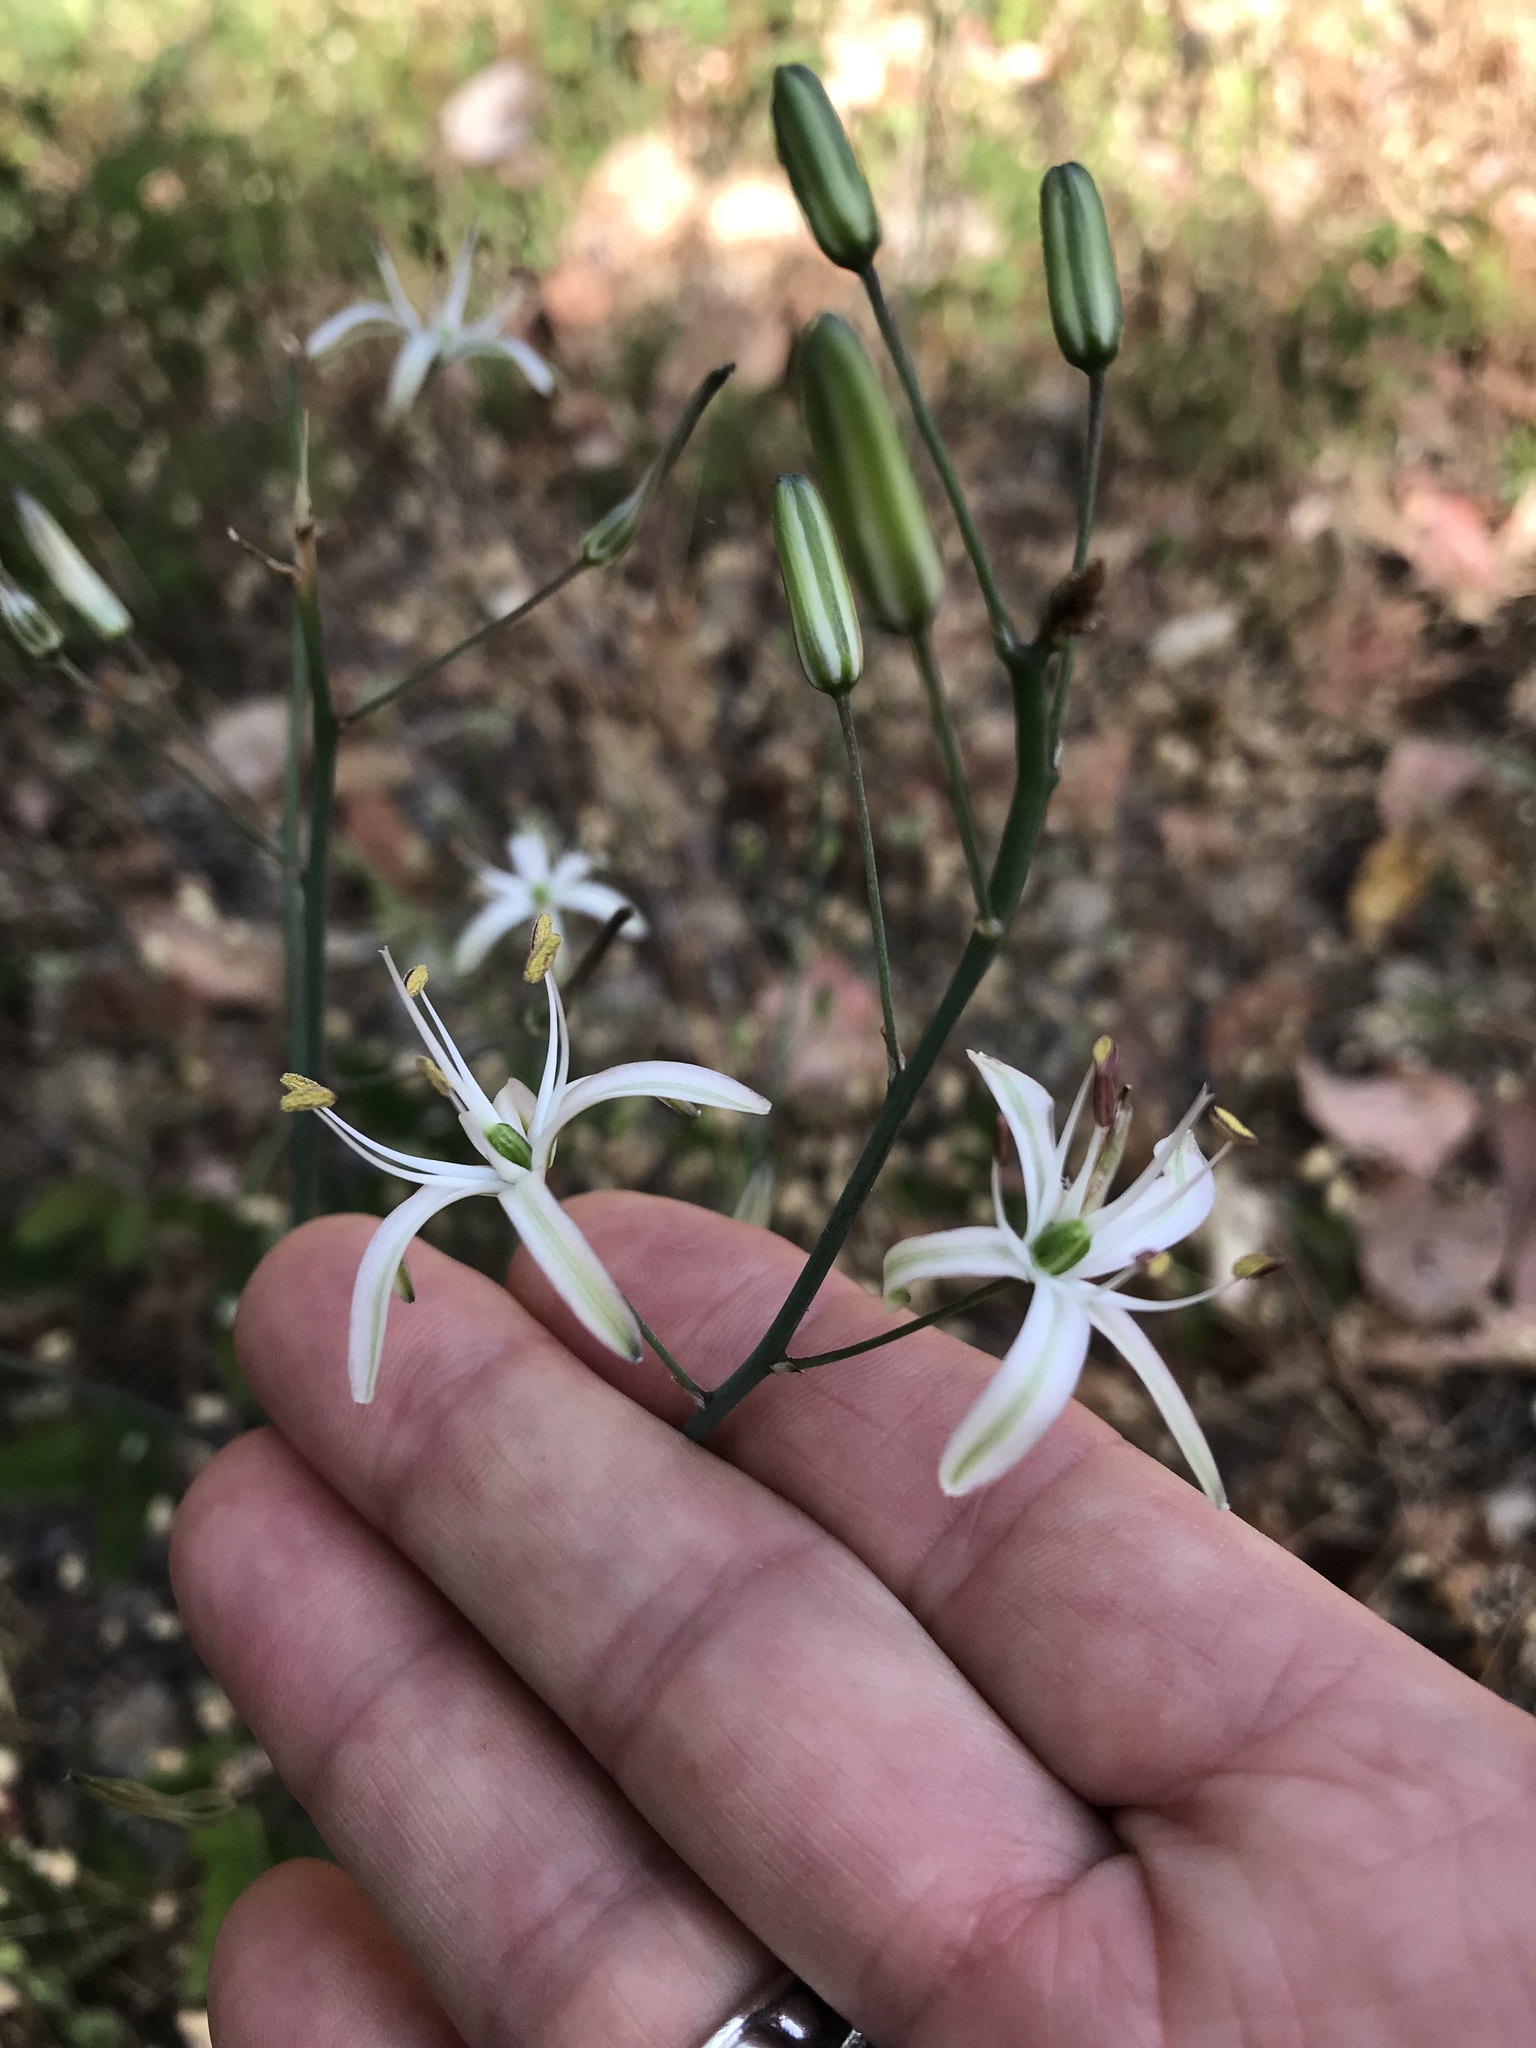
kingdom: Plantae
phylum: Tracheophyta
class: Liliopsida
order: Asparagales
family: Asparagaceae
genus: Chlorogalum
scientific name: Chlorogalum pomeridianum
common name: Amole
